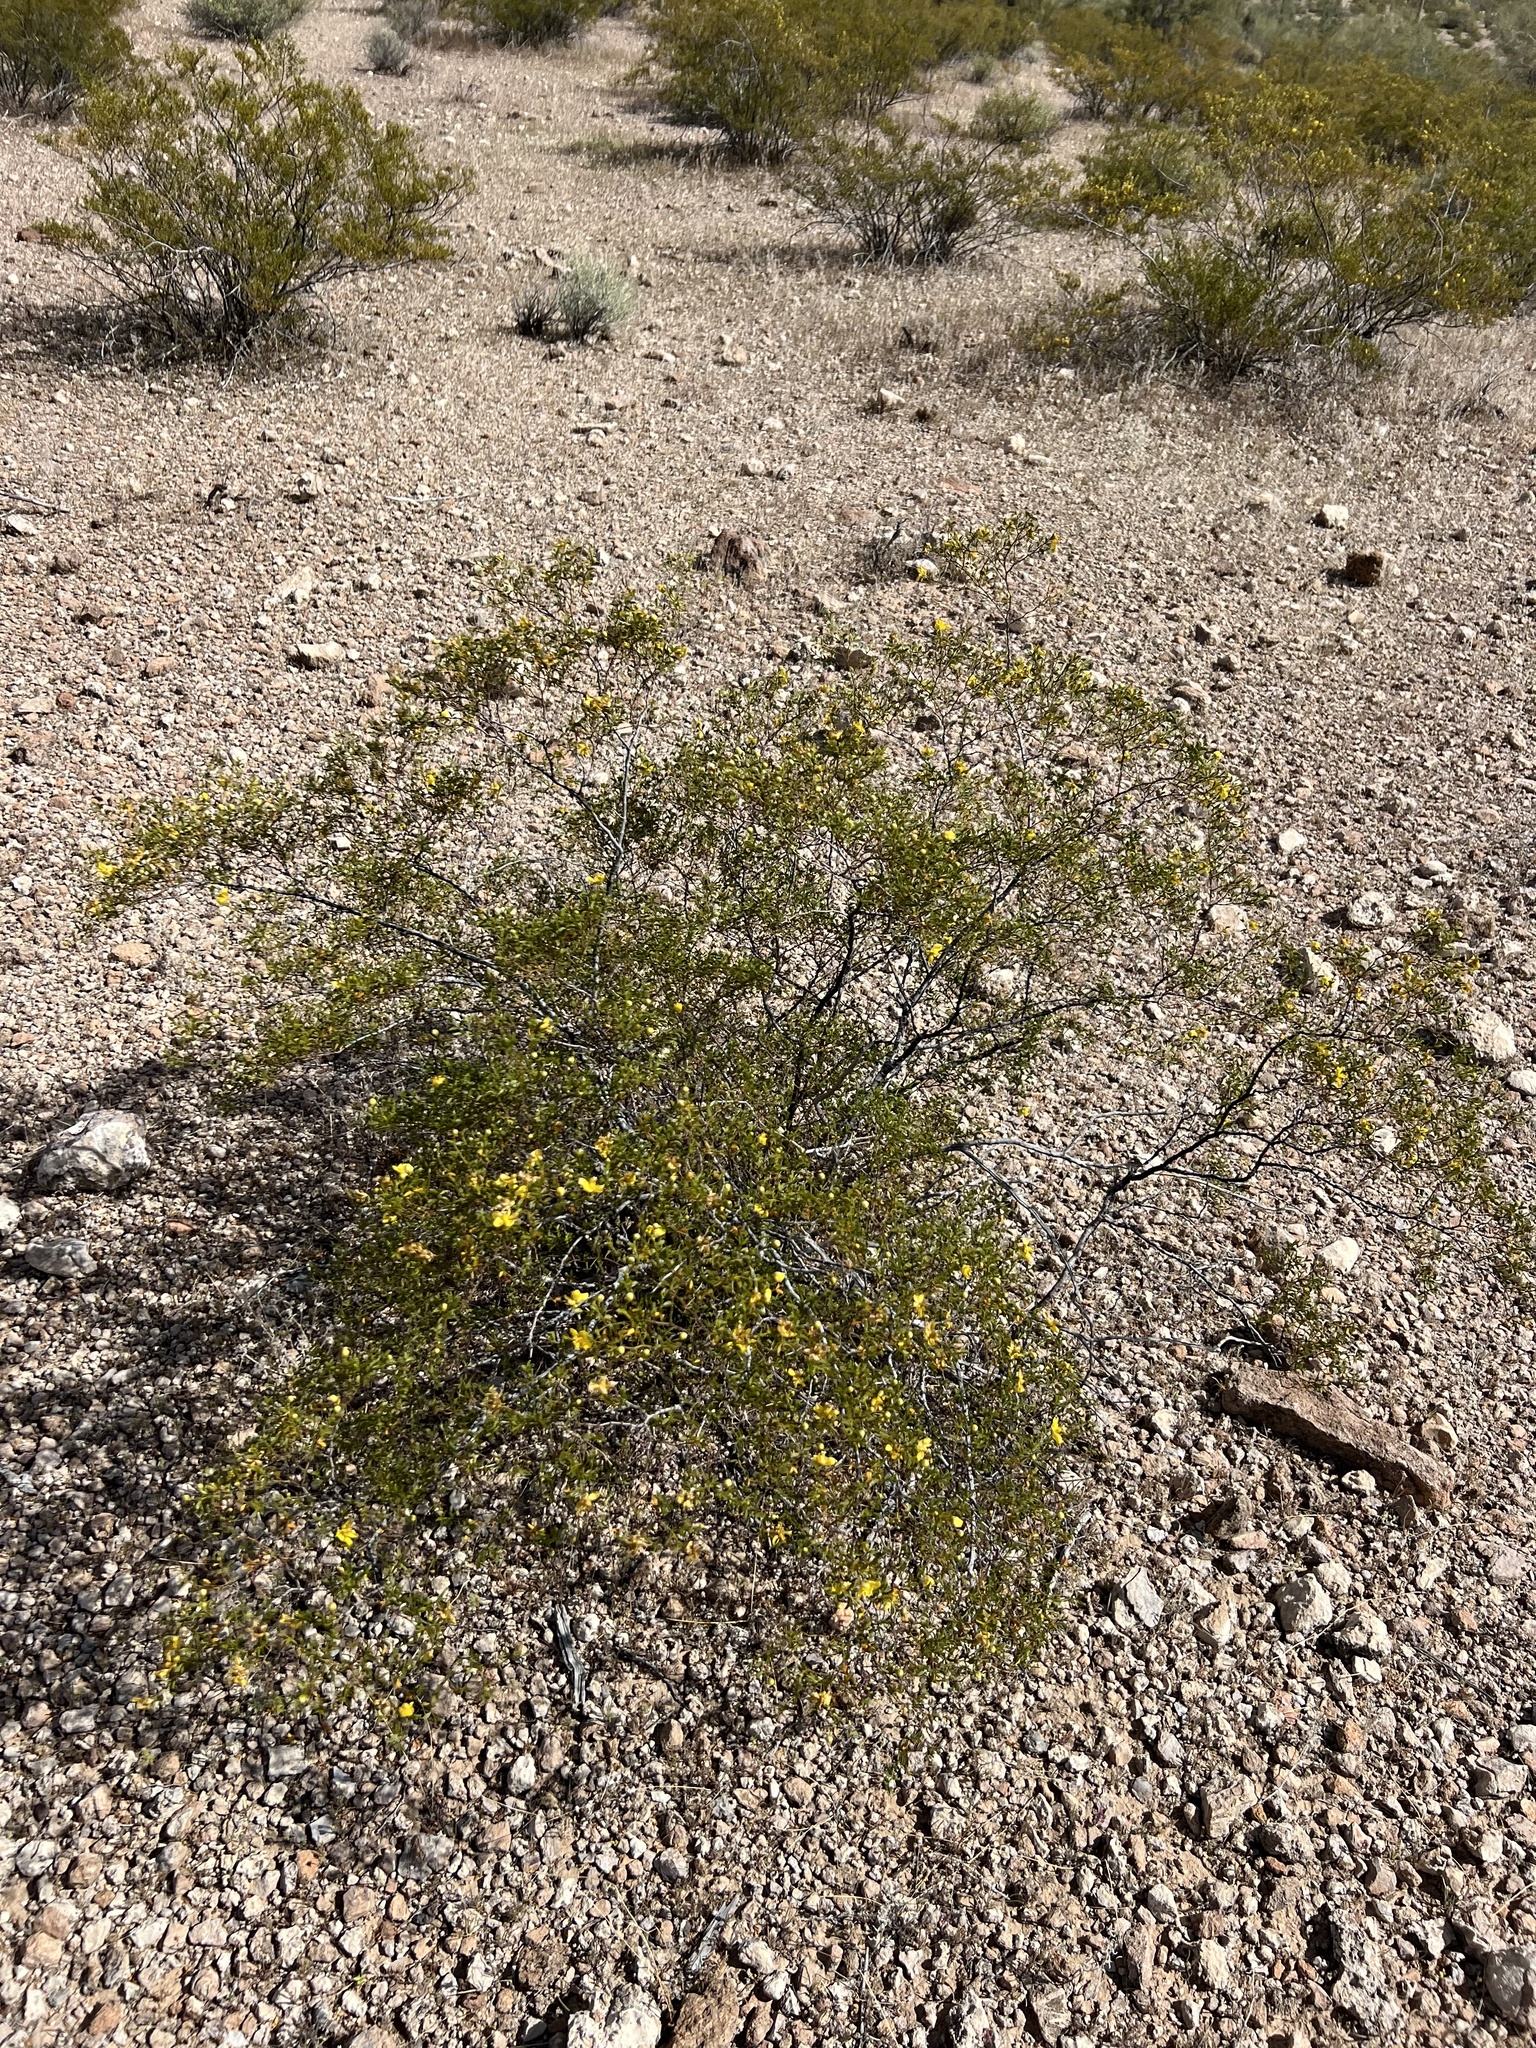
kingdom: Plantae
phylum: Tracheophyta
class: Magnoliopsida
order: Zygophyllales
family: Zygophyllaceae
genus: Larrea
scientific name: Larrea tridentata
